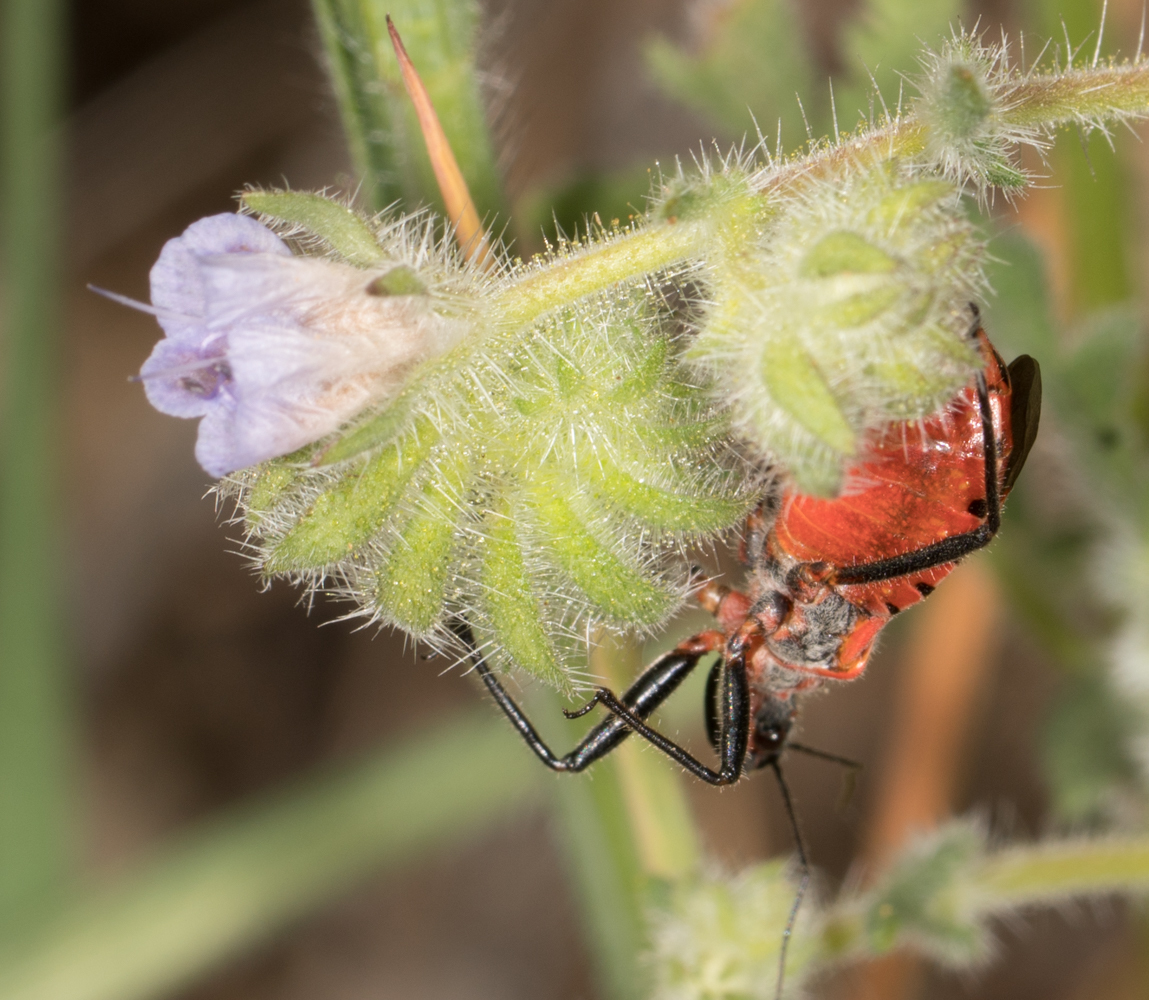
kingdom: Animalia
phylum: Arthropoda
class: Insecta
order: Hemiptera
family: Reduviidae
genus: Rhynocoris
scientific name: Rhynocoris ventralis
